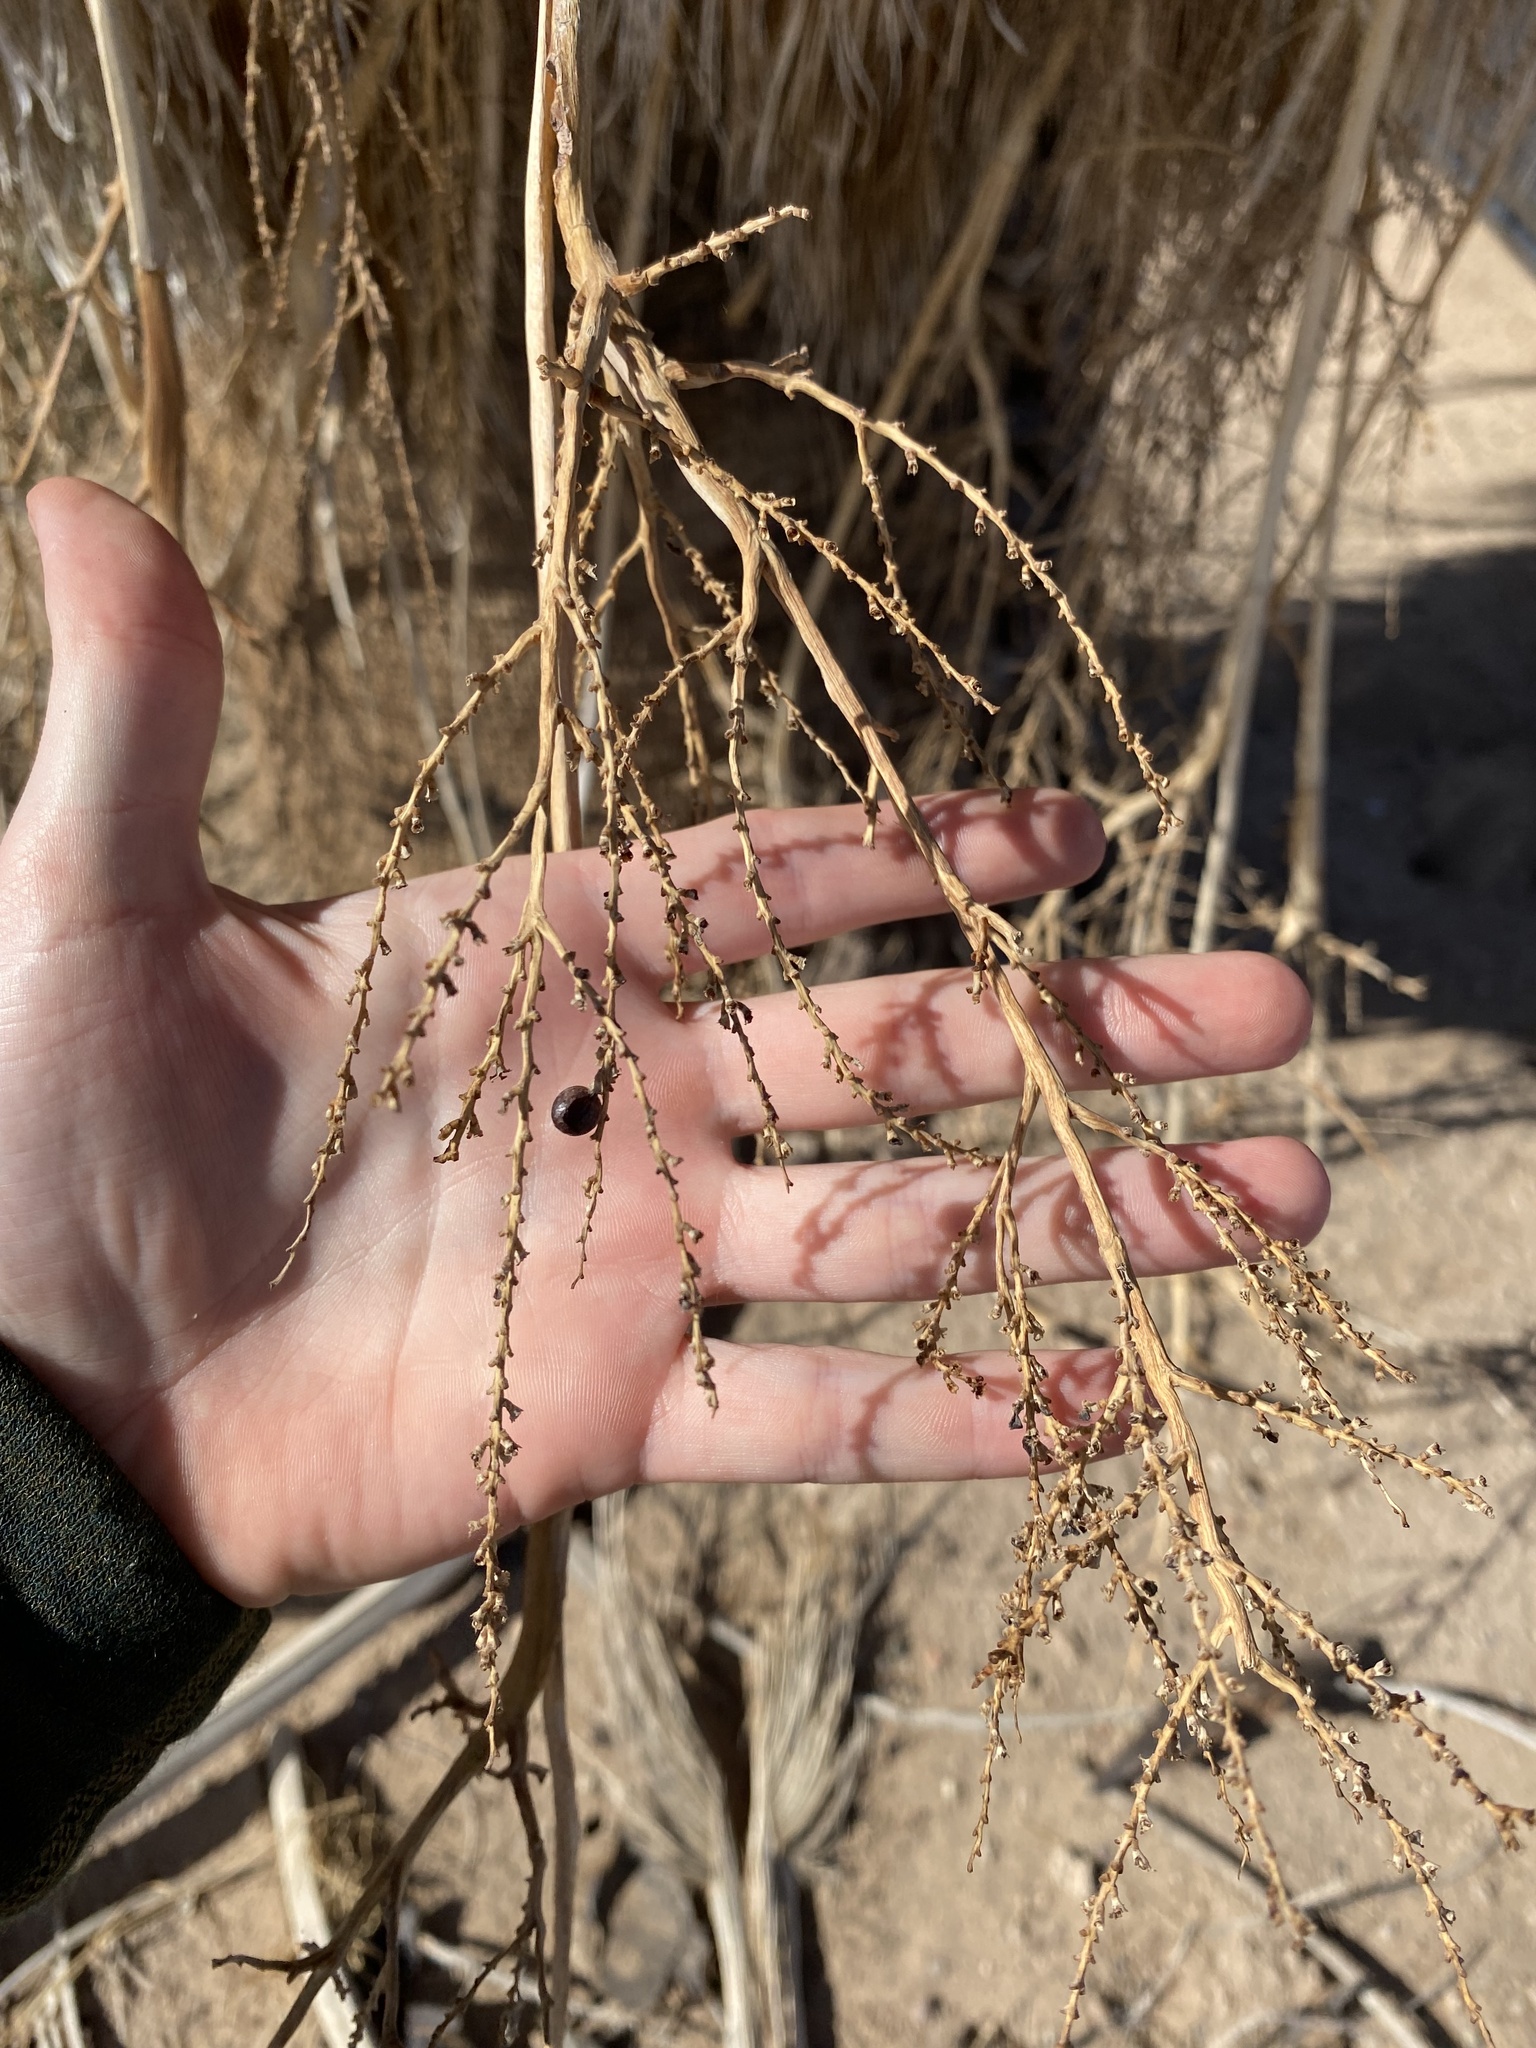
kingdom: Plantae
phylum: Tracheophyta
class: Liliopsida
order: Arecales
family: Arecaceae
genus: Washingtonia
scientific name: Washingtonia filifera
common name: California fan palm
